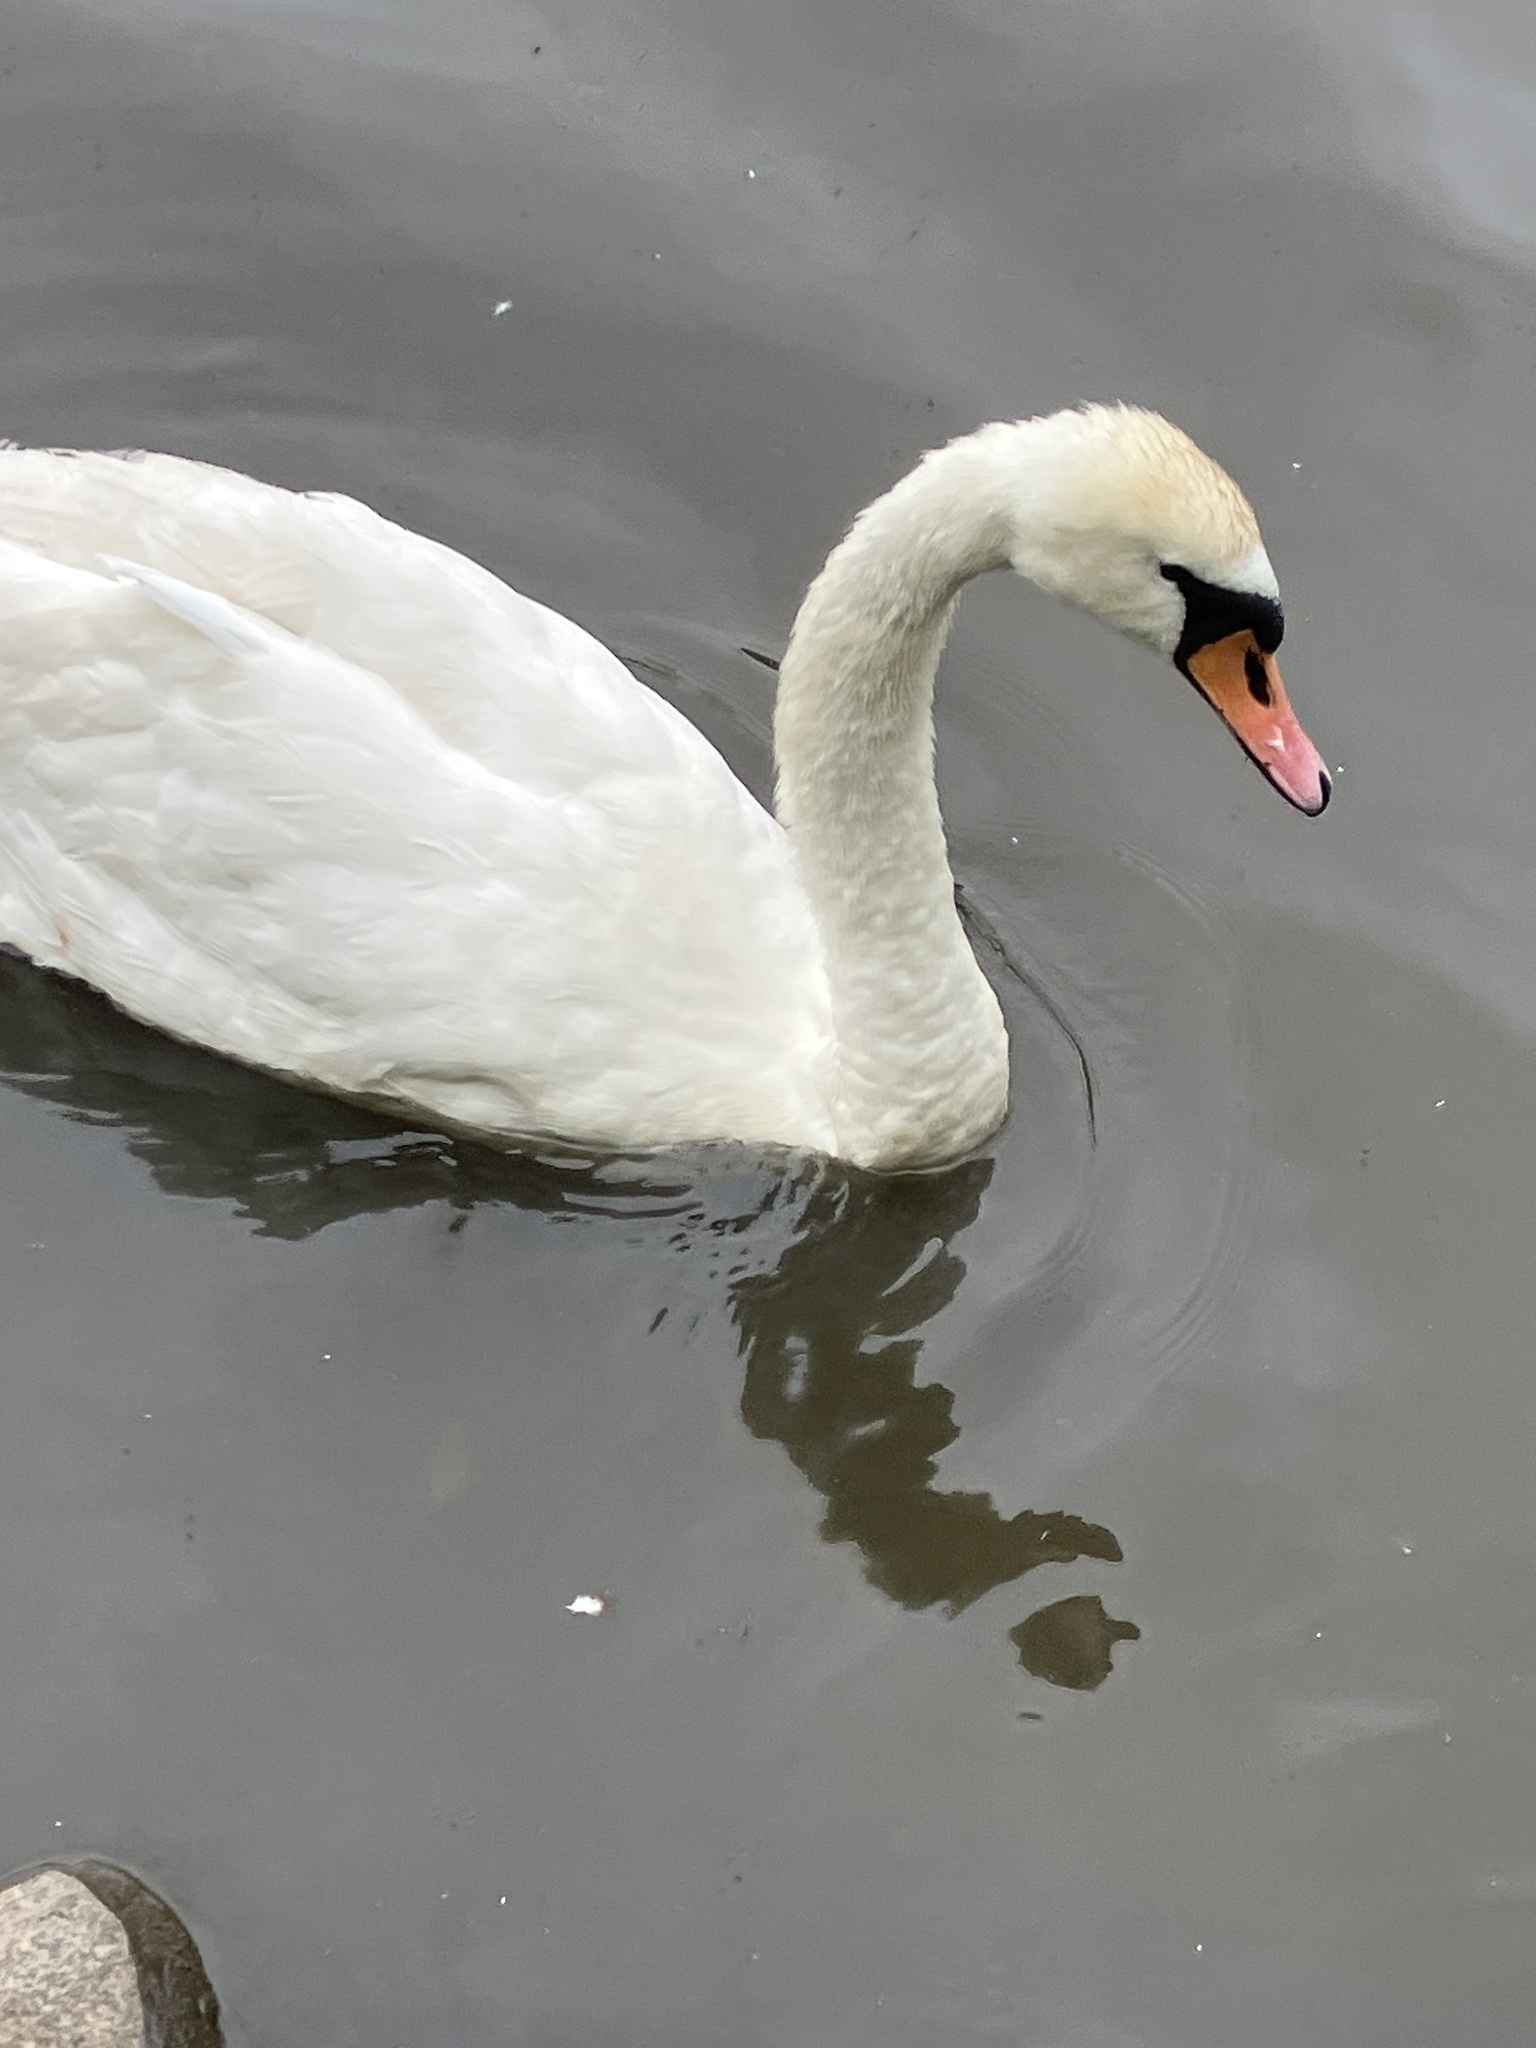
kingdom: Animalia
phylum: Chordata
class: Aves
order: Anseriformes
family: Anatidae
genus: Cygnus
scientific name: Cygnus olor
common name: Mute swan
